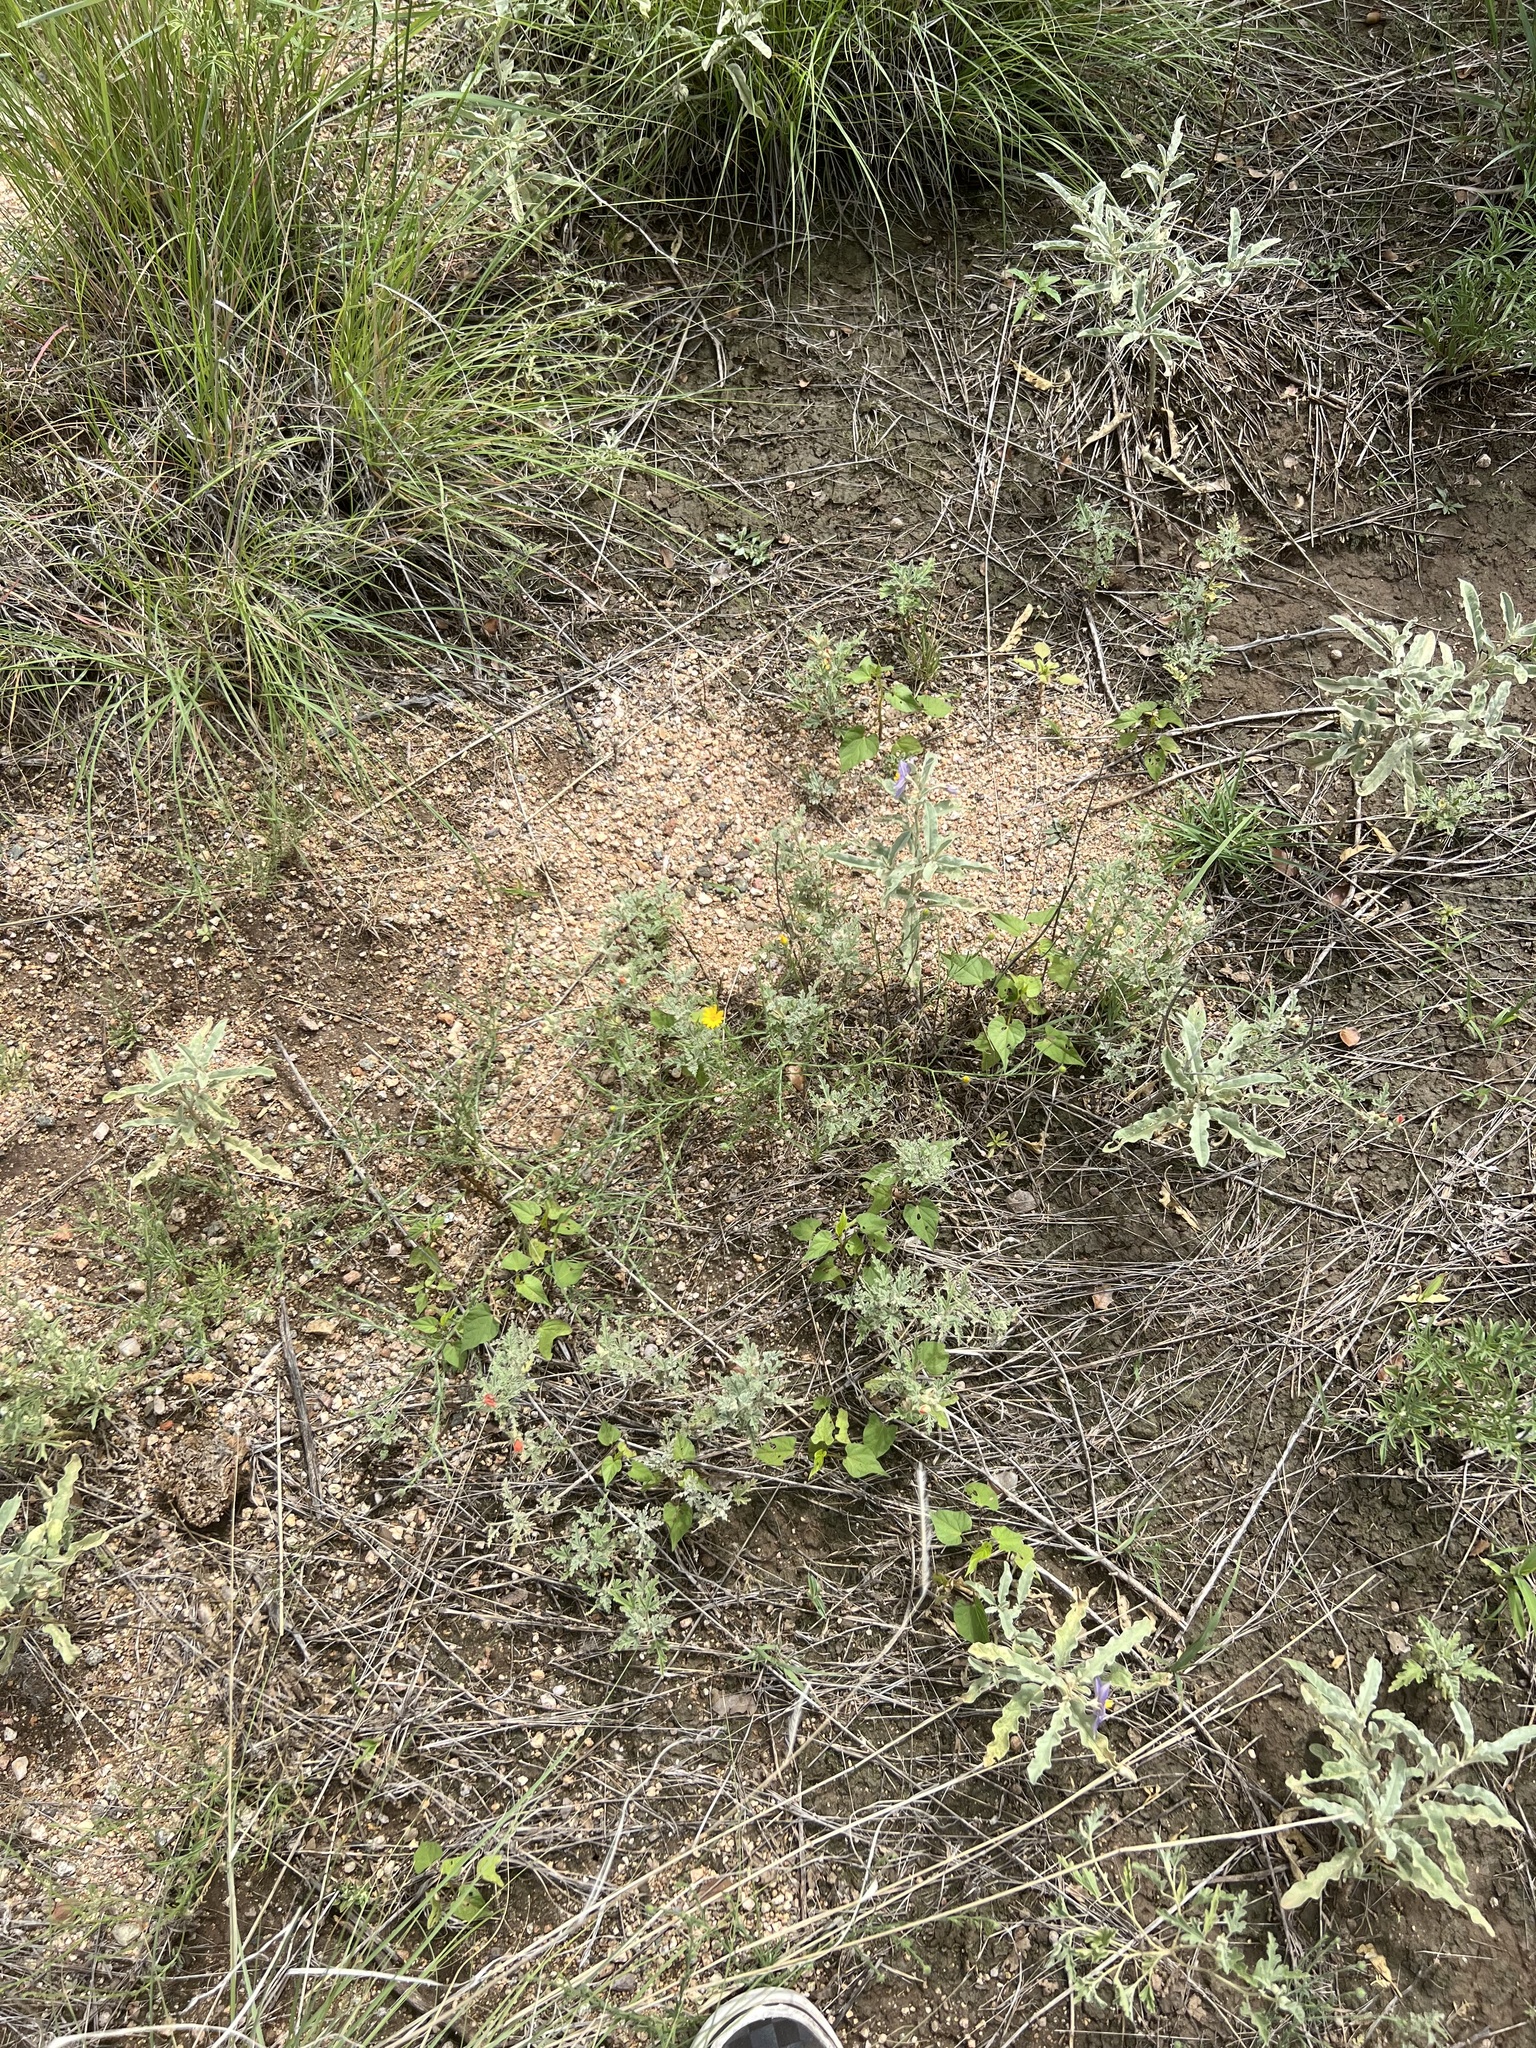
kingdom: Plantae
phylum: Tracheophyta
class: Magnoliopsida
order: Solanales
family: Solanaceae
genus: Solanum
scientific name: Solanum elaeagnifolium
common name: Silverleaf nightshade
